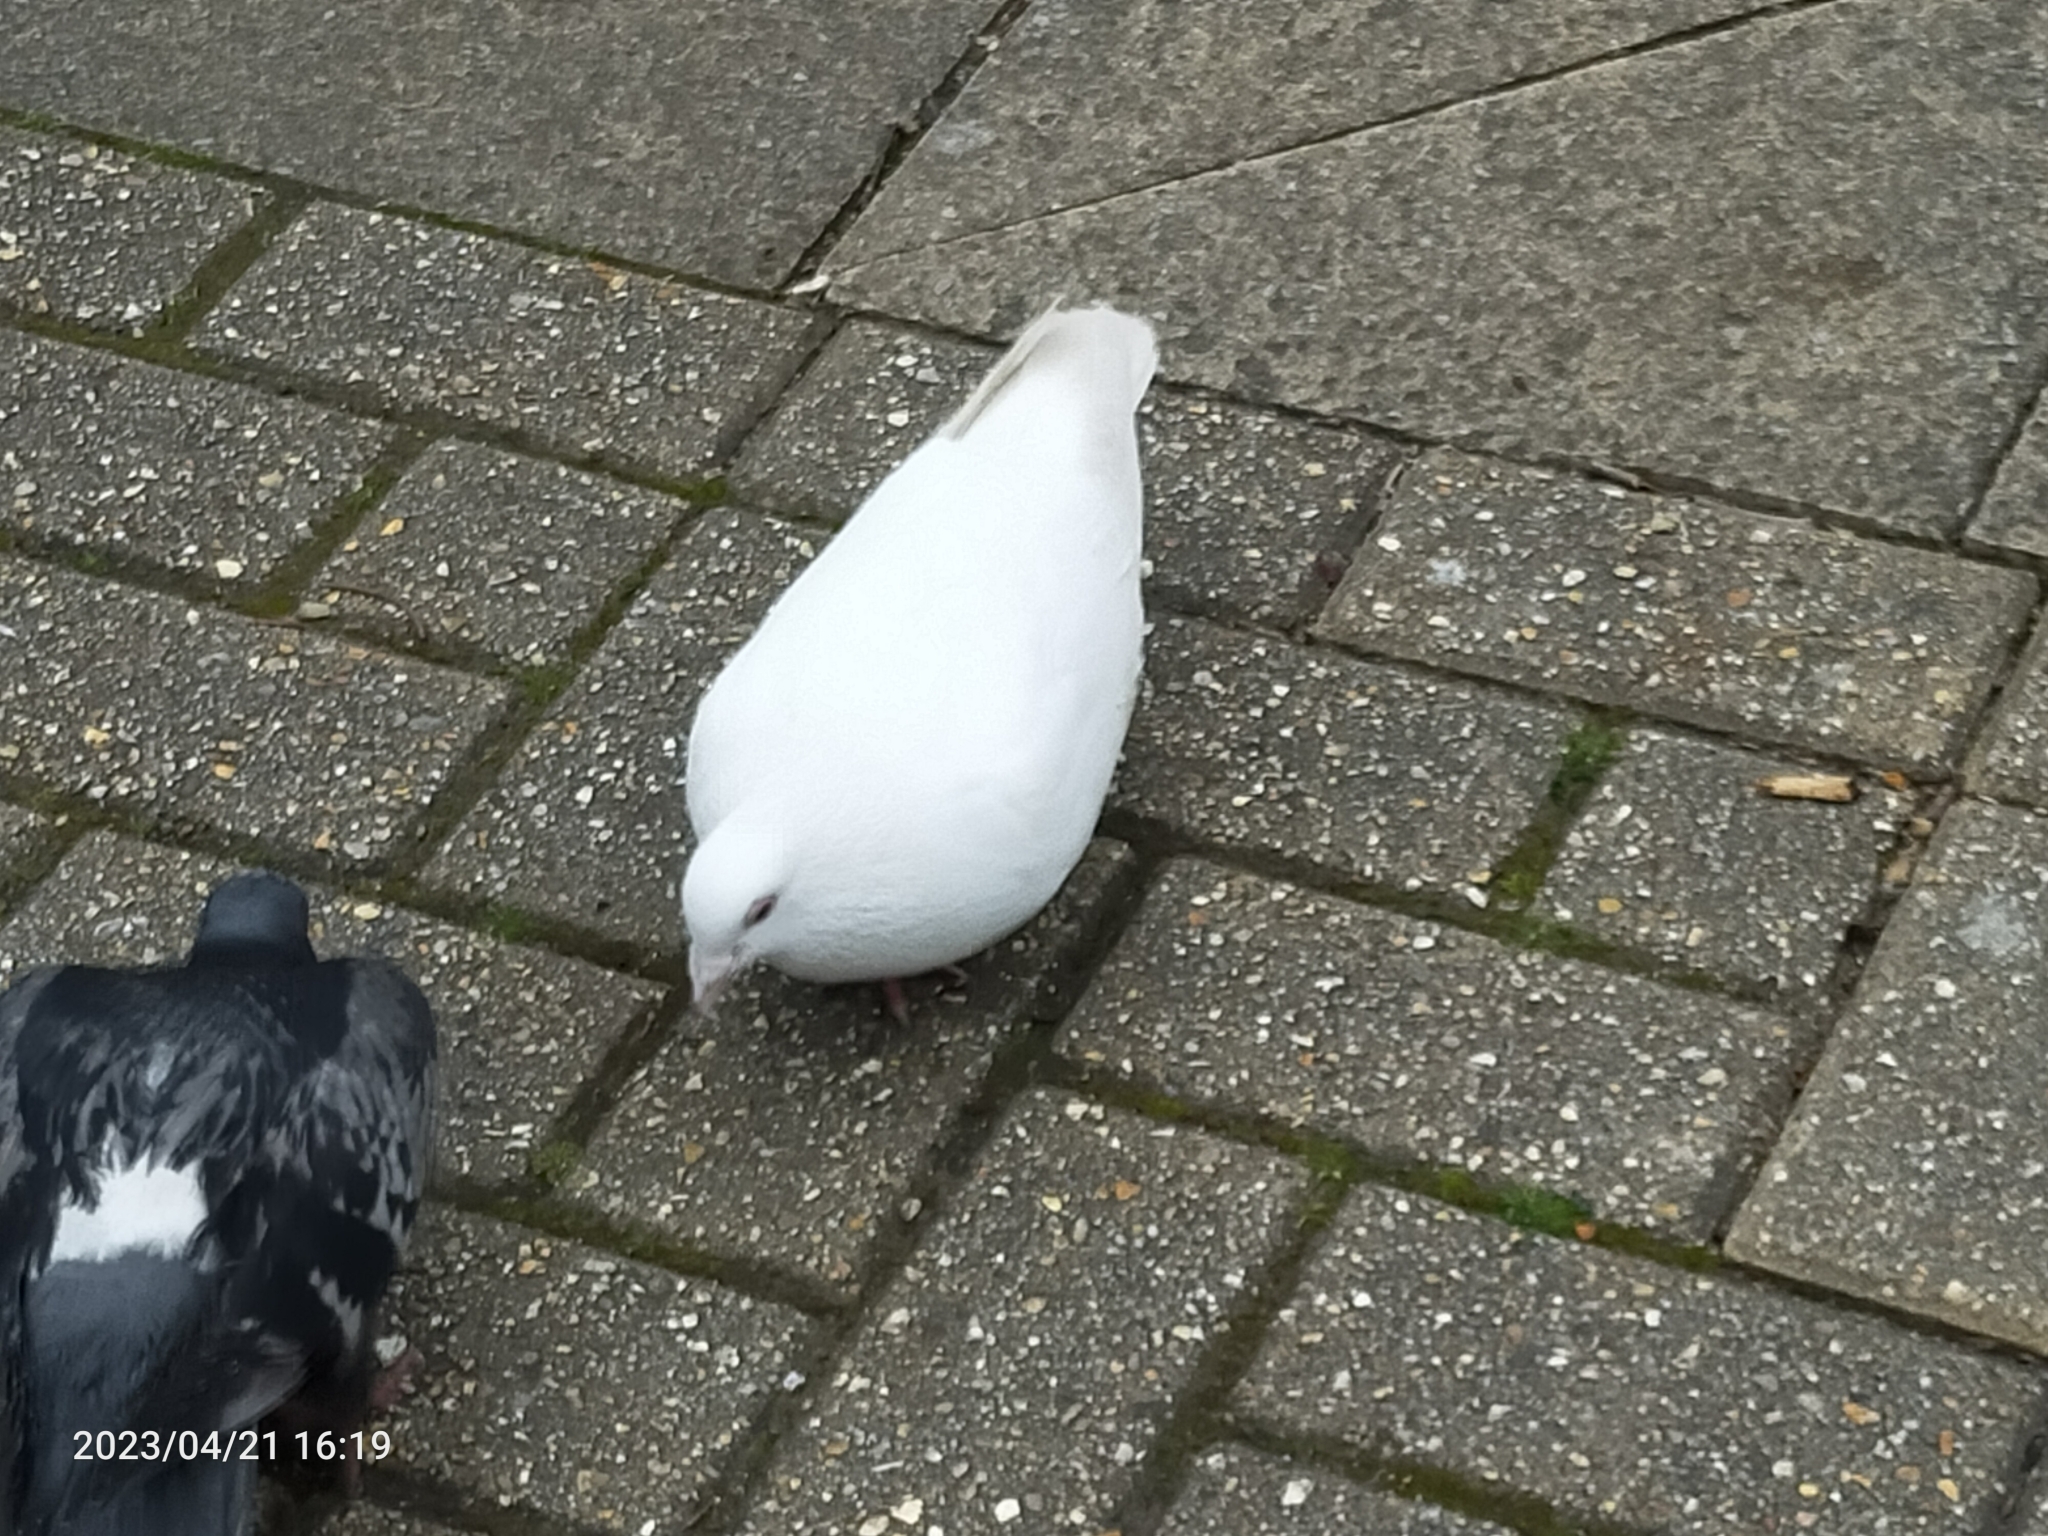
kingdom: Animalia
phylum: Chordata
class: Aves
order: Columbiformes
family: Columbidae
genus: Columba
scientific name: Columba livia
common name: Rock pigeon
